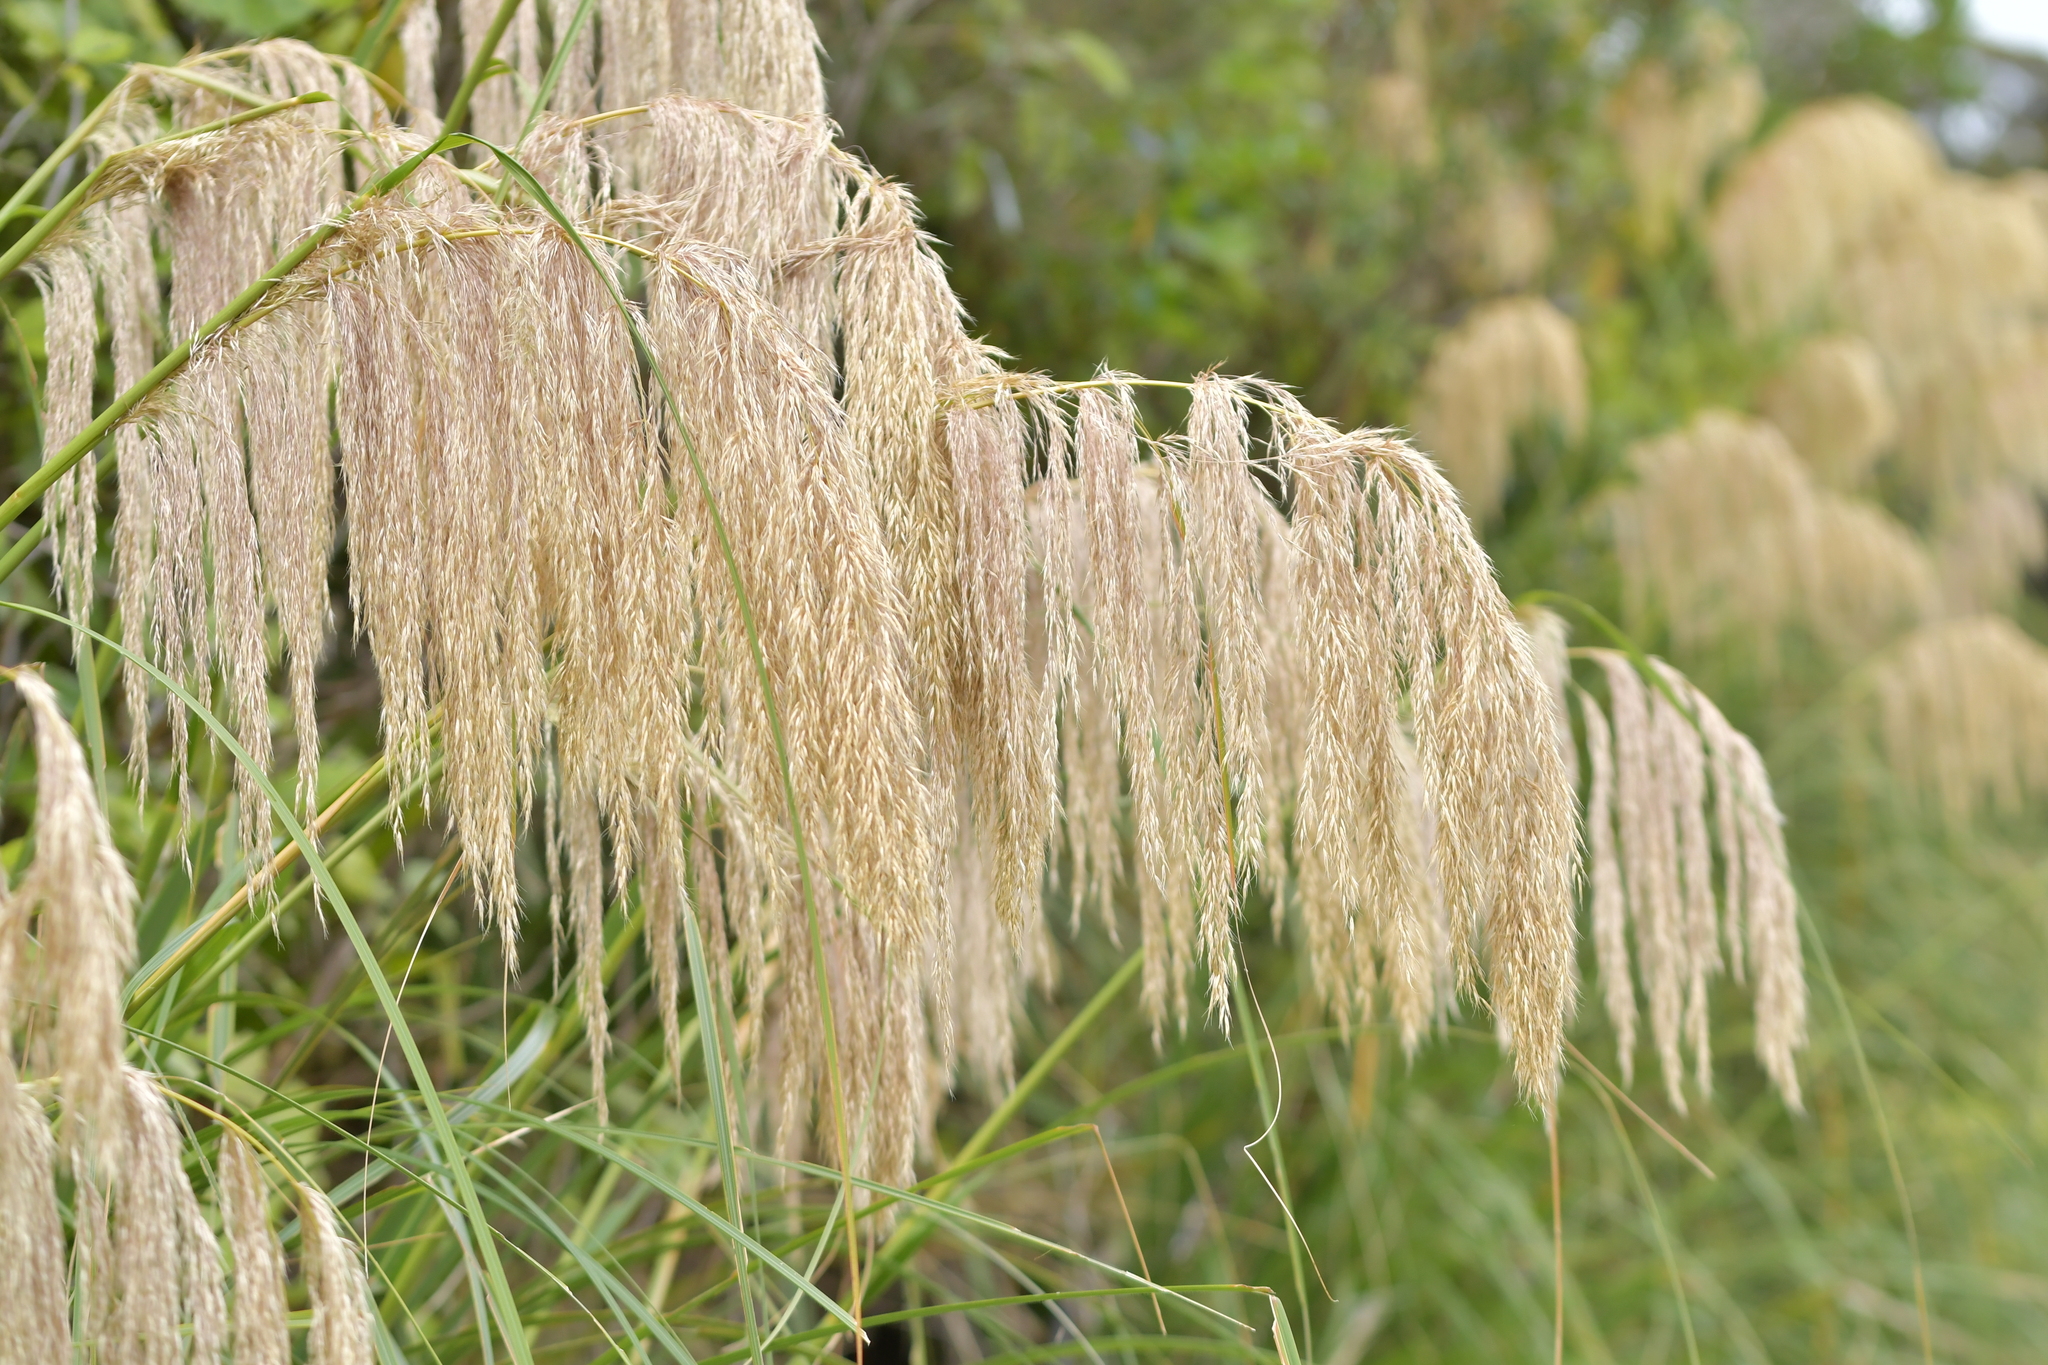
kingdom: Plantae
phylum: Tracheophyta
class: Liliopsida
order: Poales
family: Poaceae
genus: Austroderia
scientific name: Austroderia fulvida
